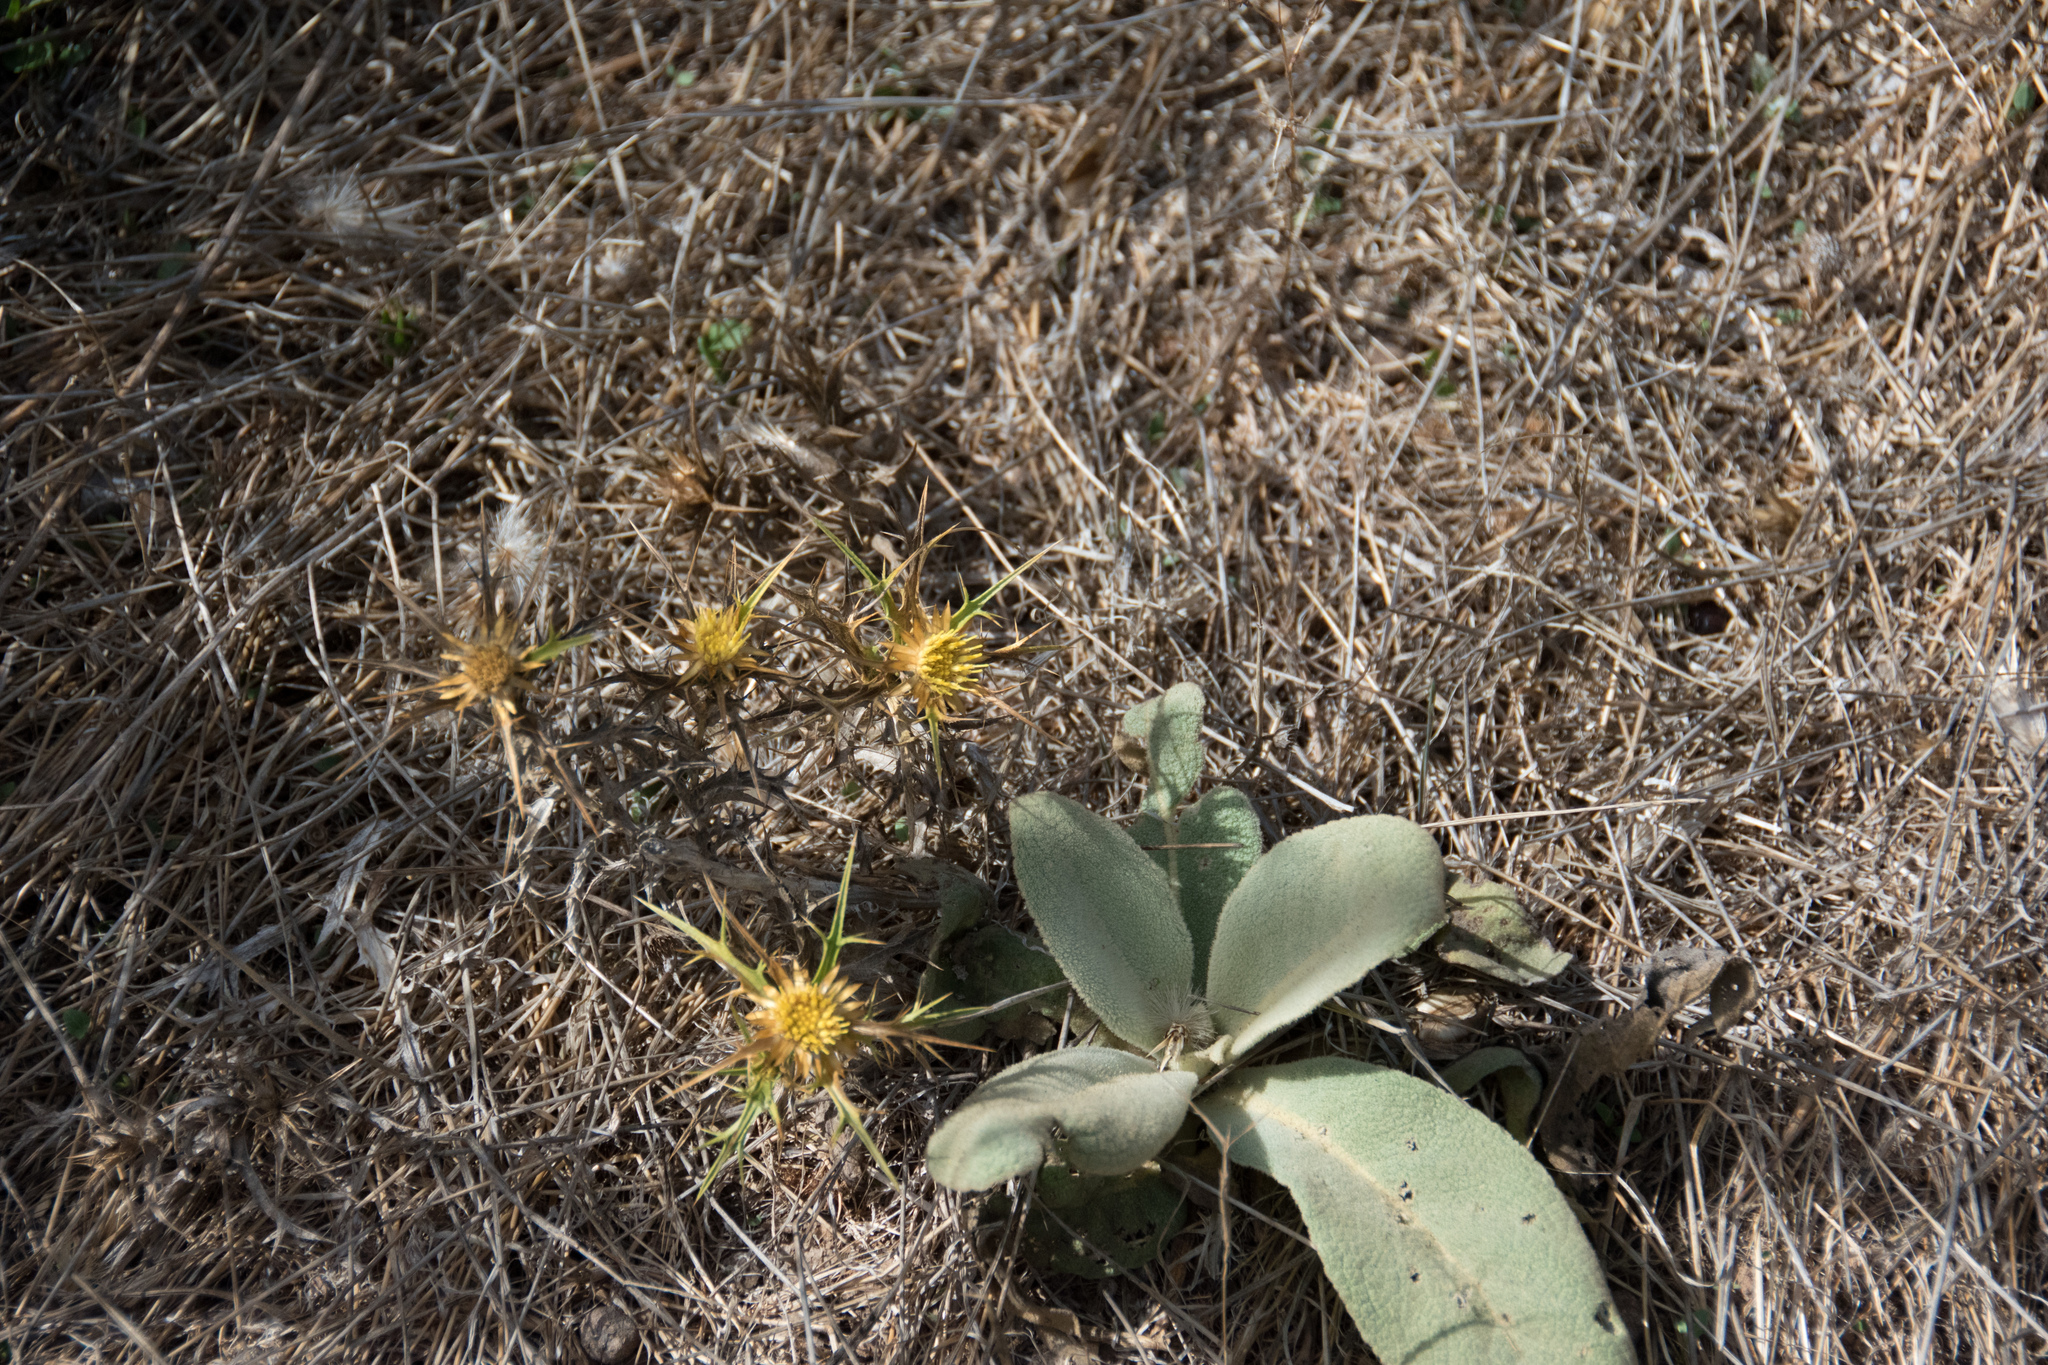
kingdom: Plantae
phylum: Tracheophyta
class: Magnoliopsida
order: Asterales
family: Asteraceae
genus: Carlina
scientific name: Carlina curetum
